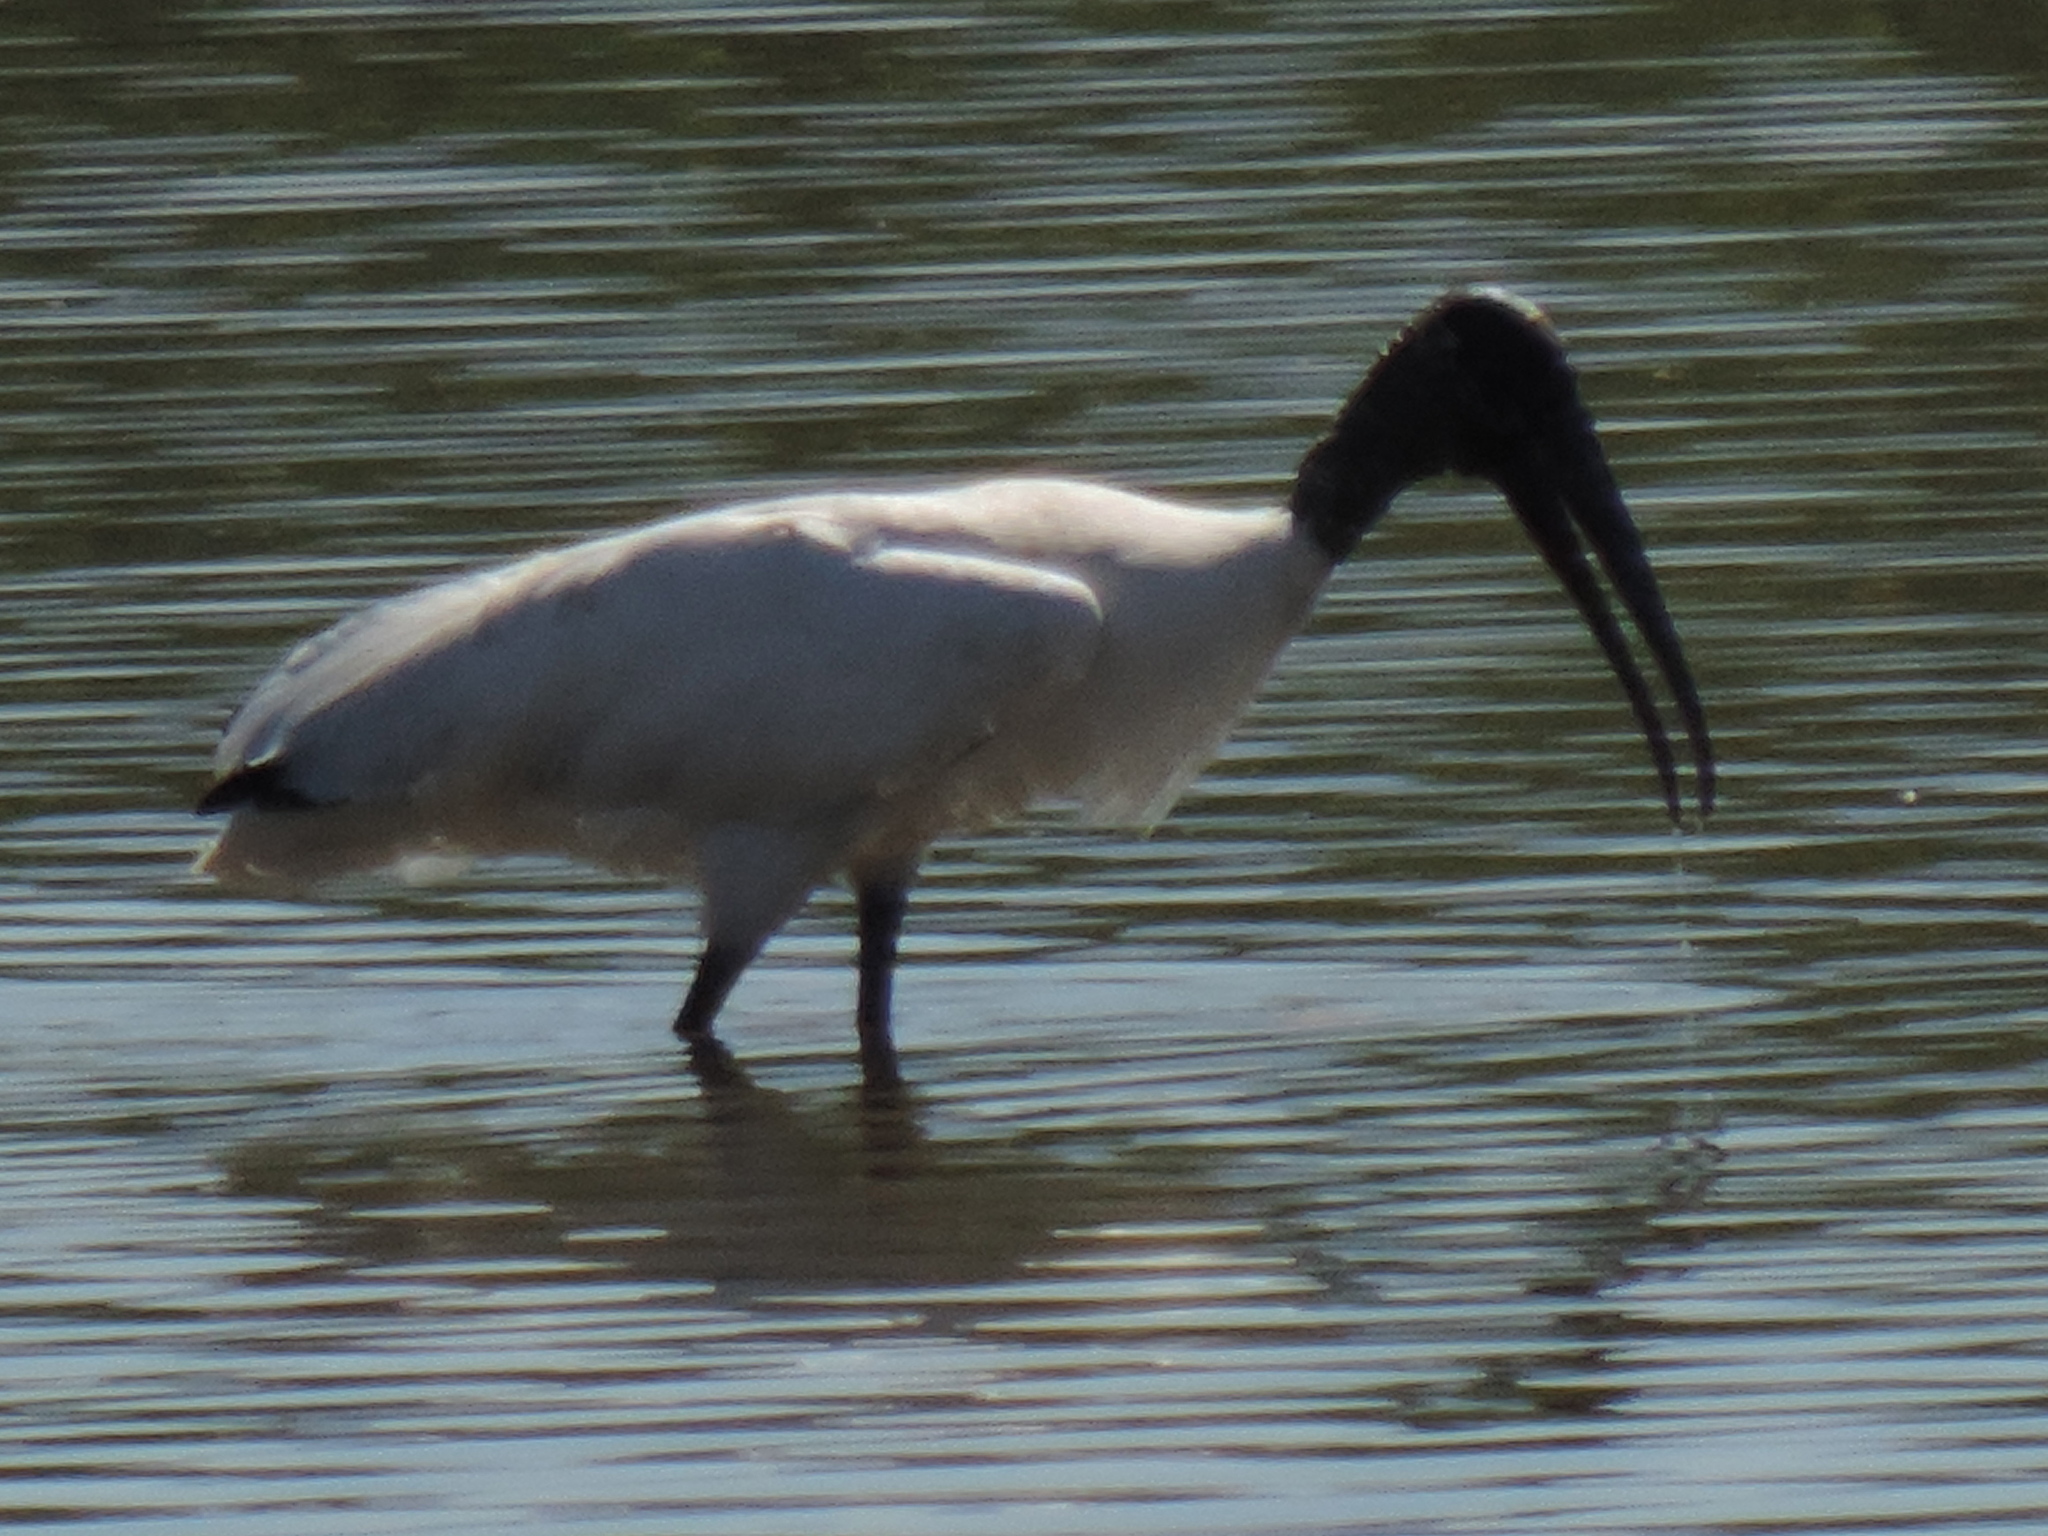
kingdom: Animalia
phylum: Chordata
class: Aves
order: Ciconiiformes
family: Ciconiidae
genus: Mycteria
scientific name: Mycteria americana
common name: Wood stork
